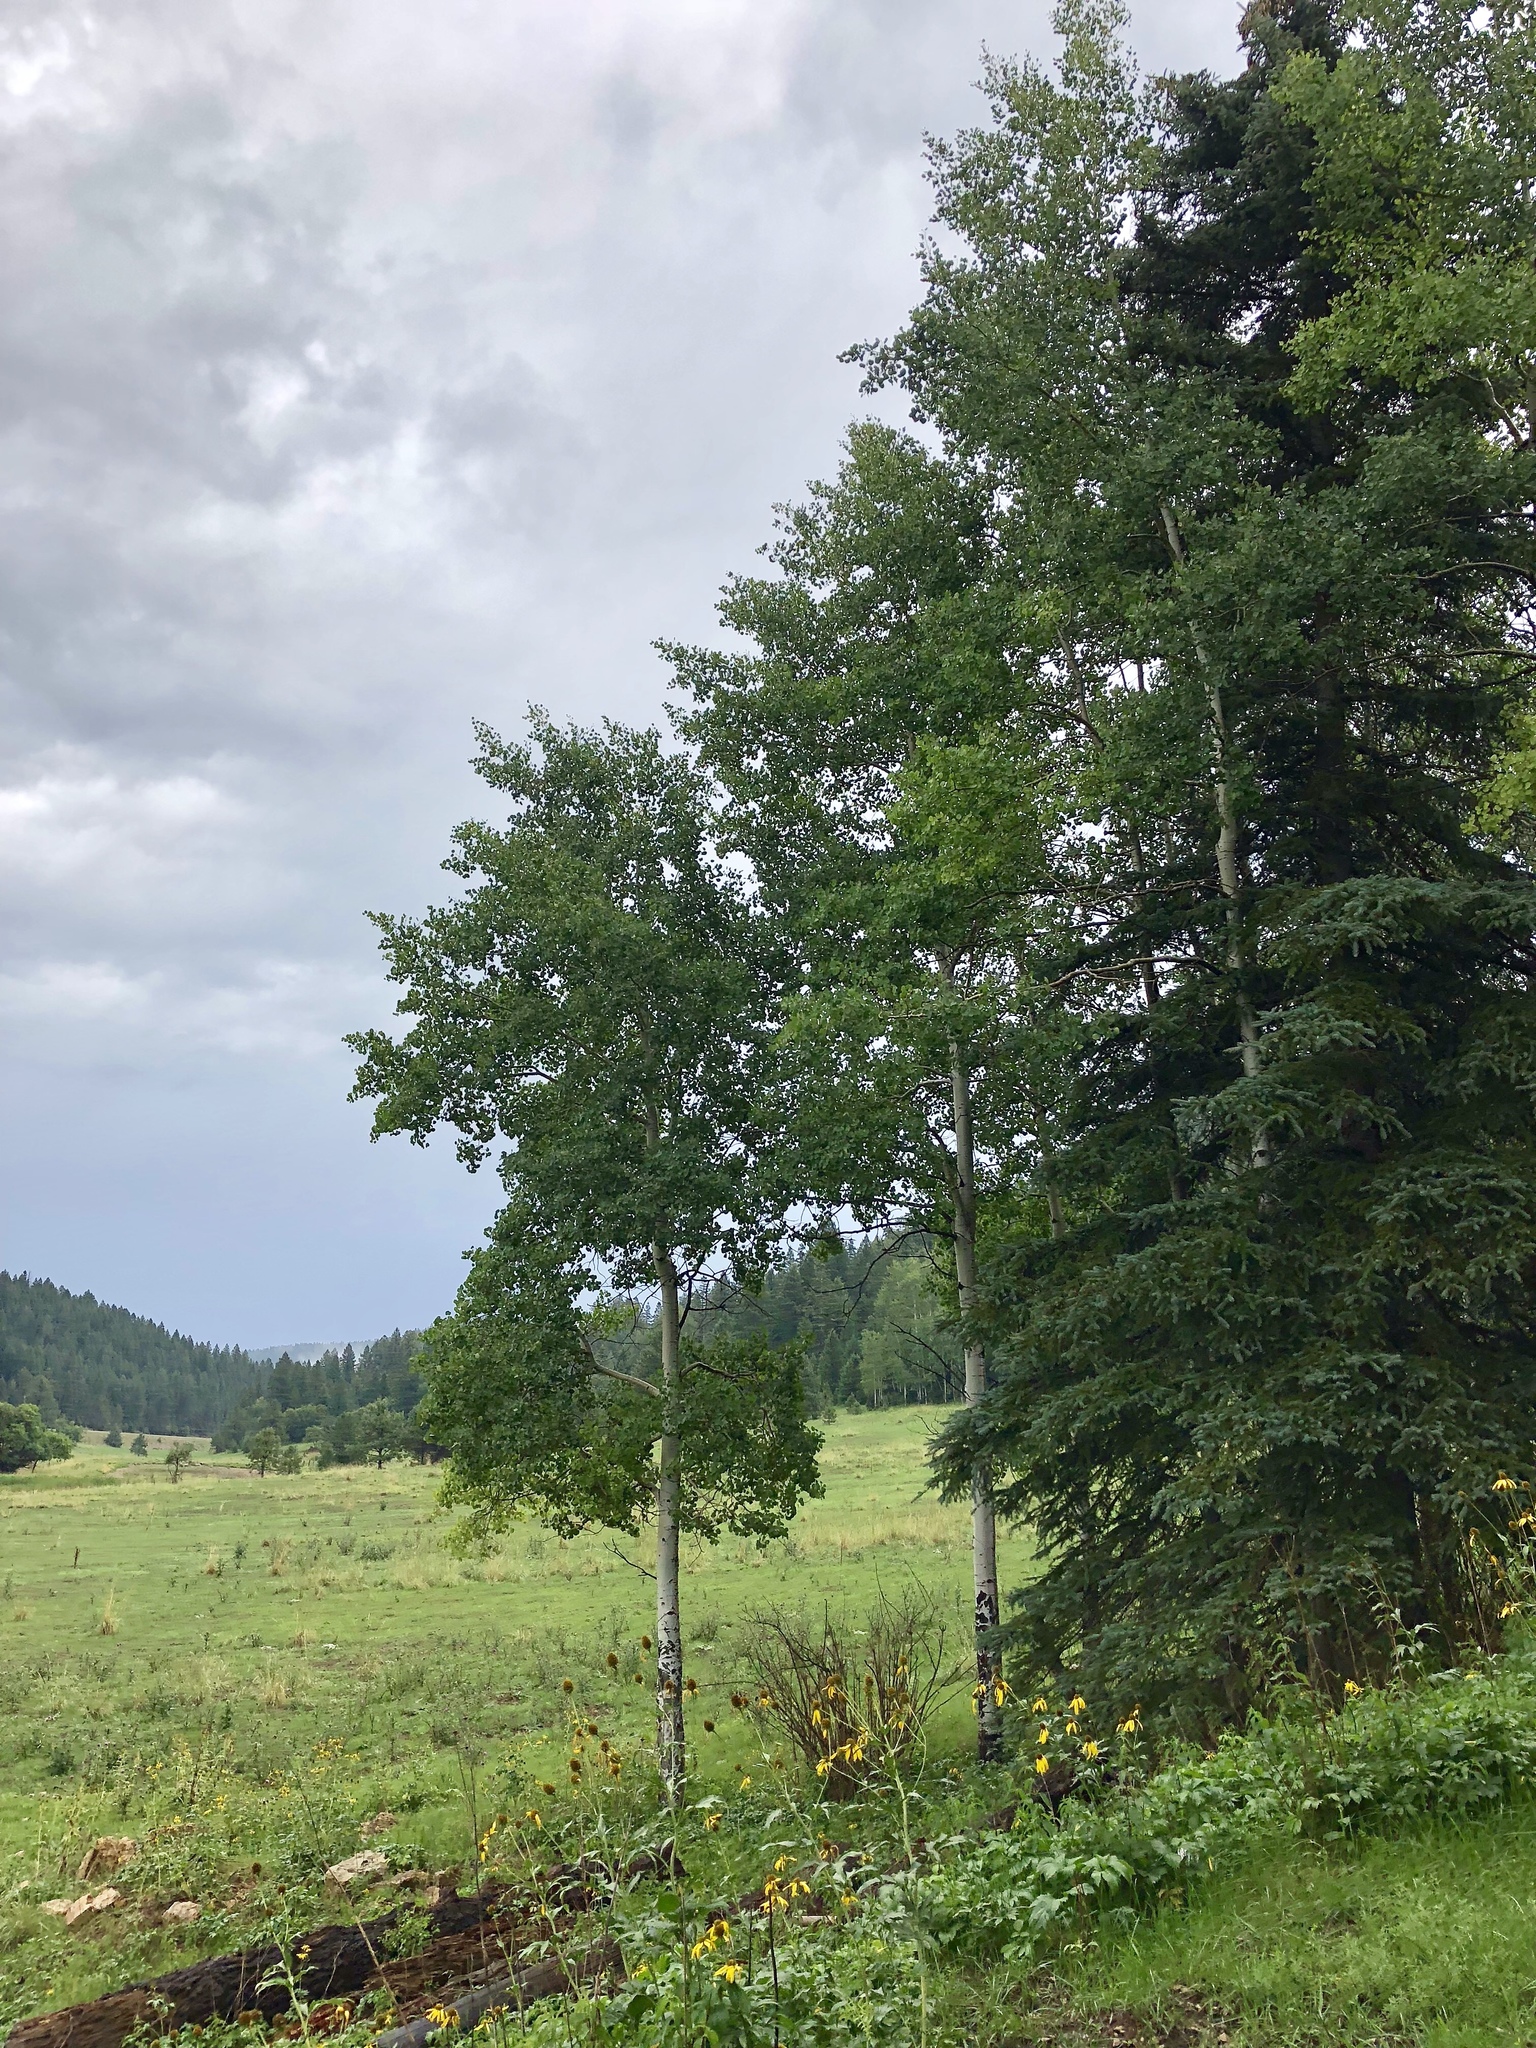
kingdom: Plantae
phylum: Tracheophyta
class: Magnoliopsida
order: Malpighiales
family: Salicaceae
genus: Populus
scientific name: Populus tremuloides
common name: Quaking aspen
